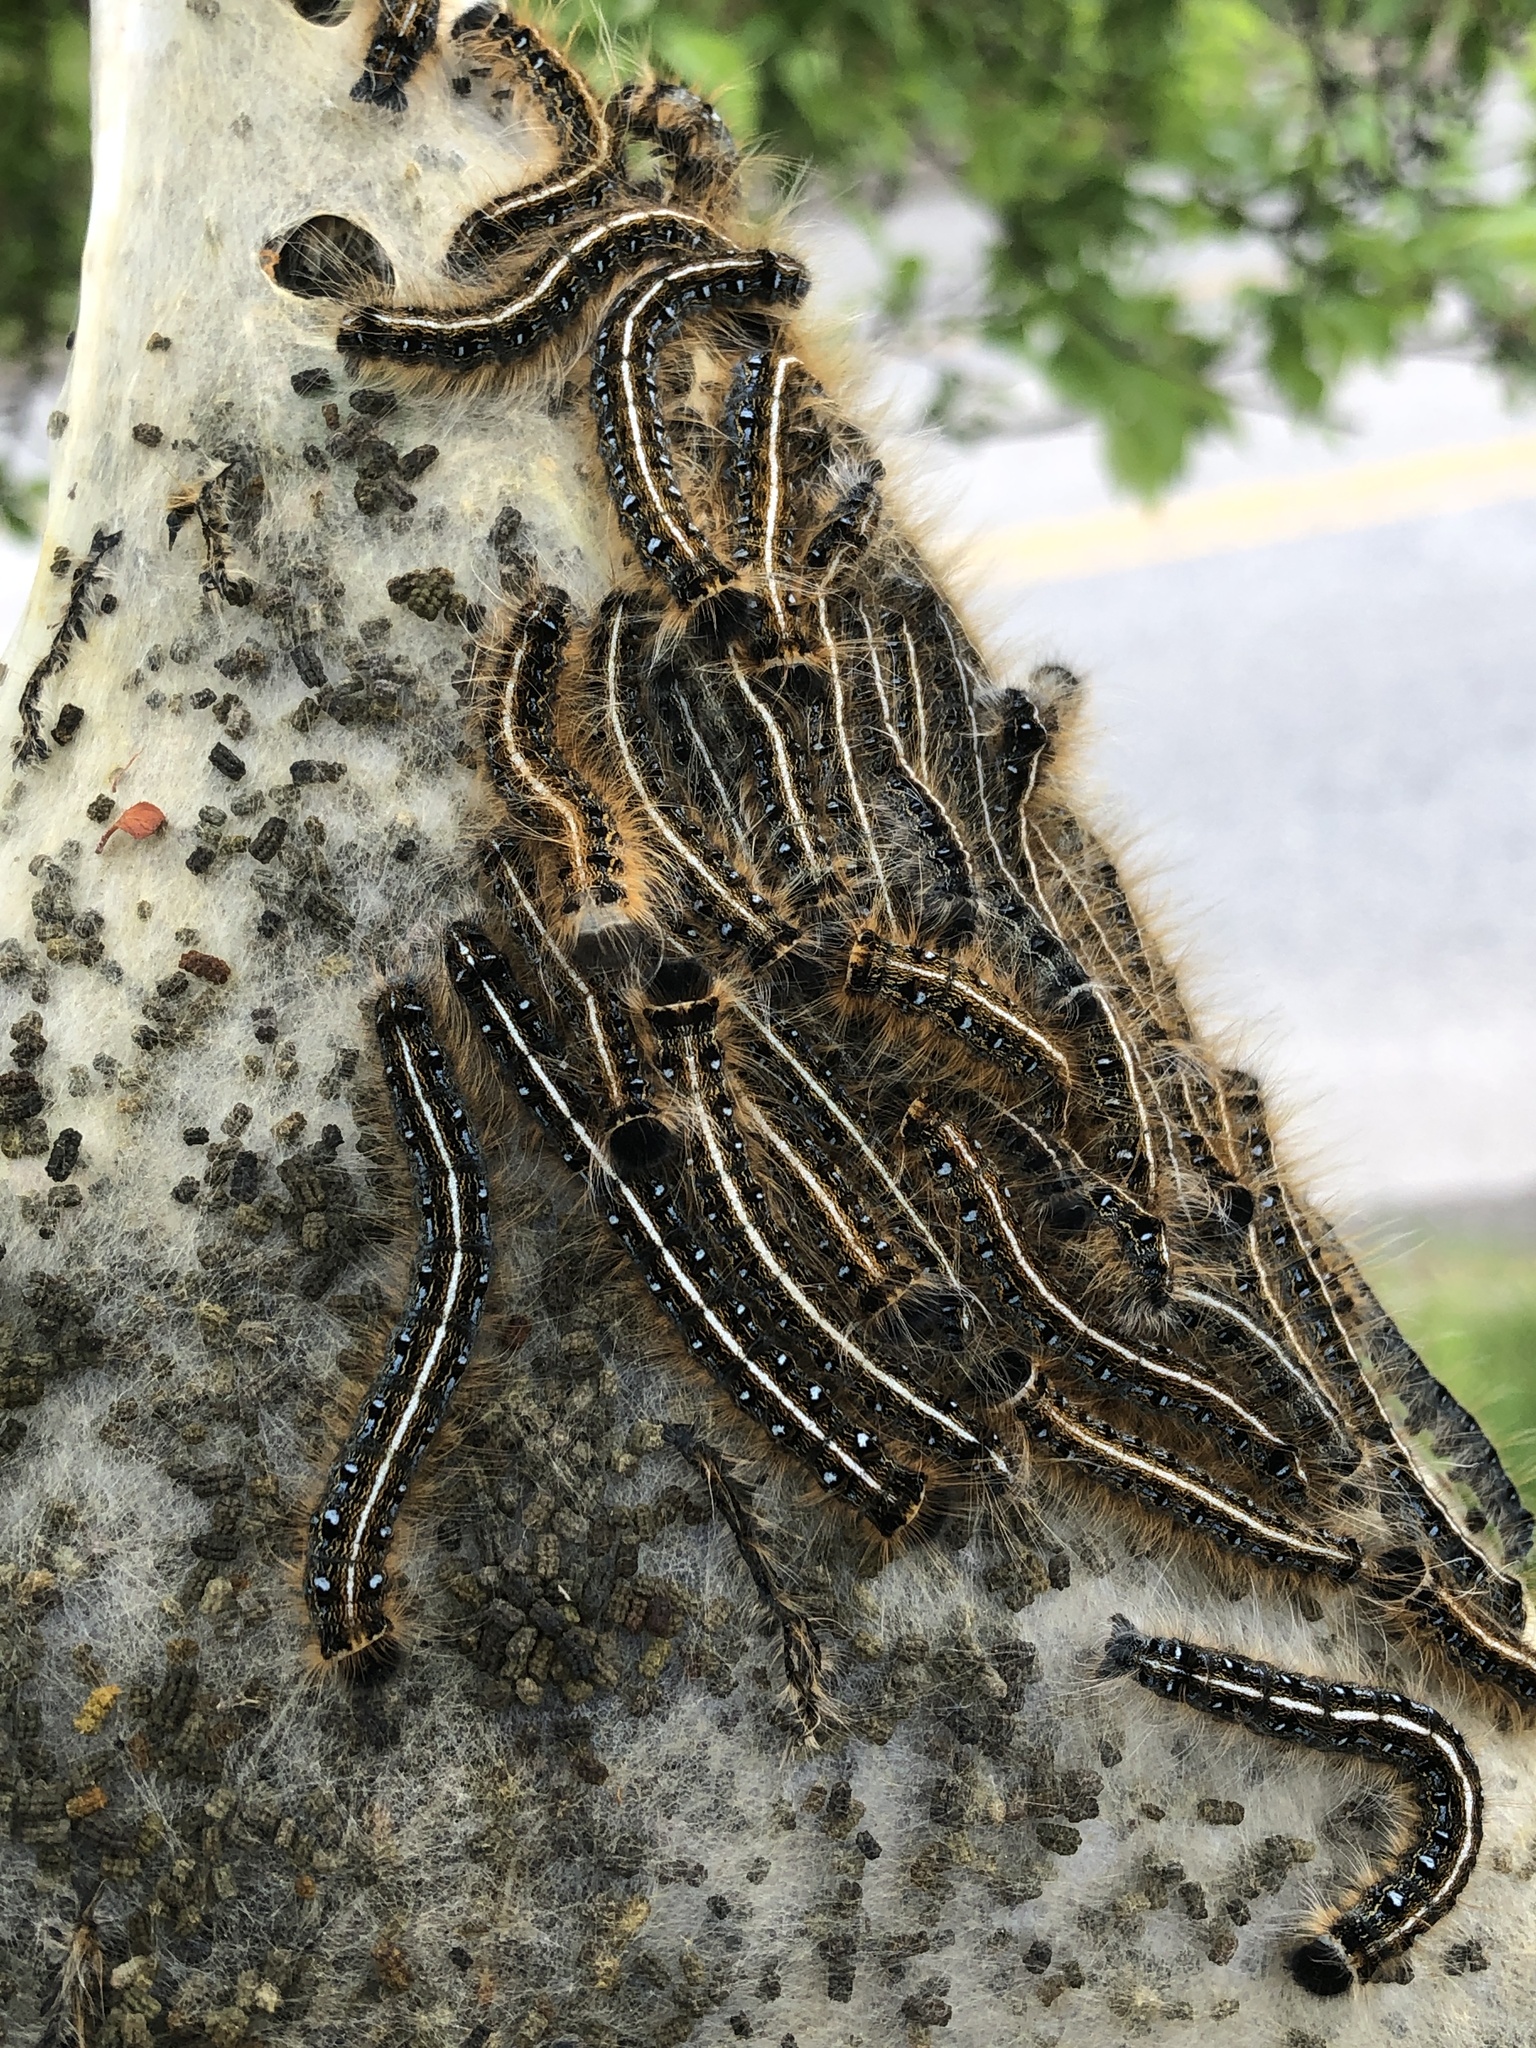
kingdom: Animalia
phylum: Arthropoda
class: Insecta
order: Lepidoptera
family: Lasiocampidae
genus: Malacosoma
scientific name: Malacosoma americana
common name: Eastern tent caterpillar moth
